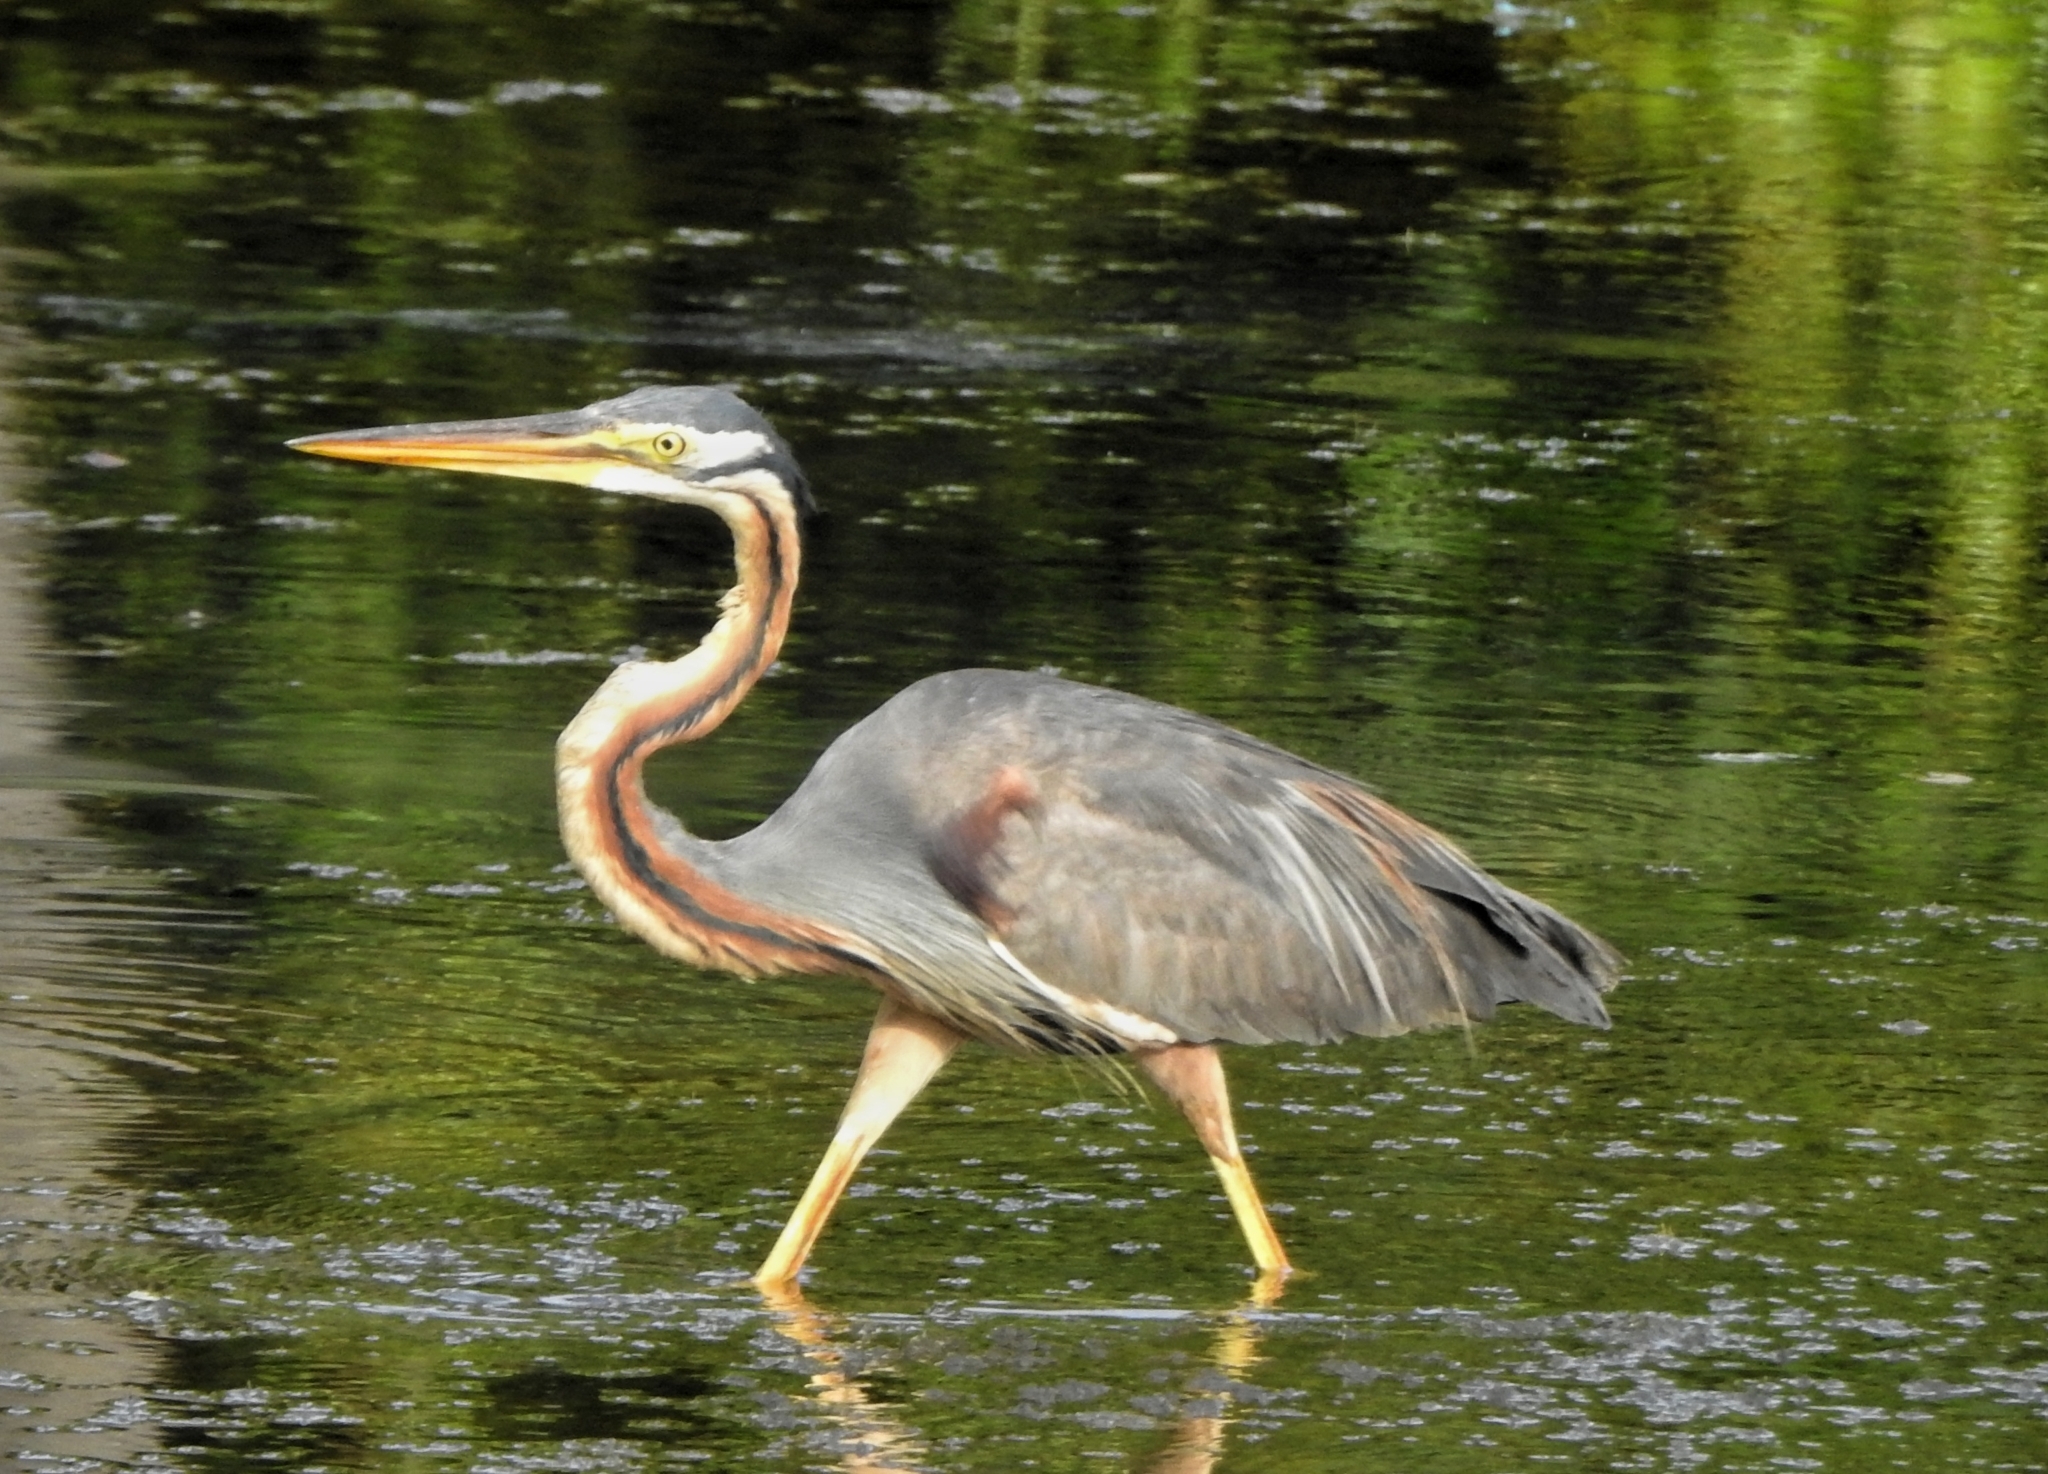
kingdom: Animalia
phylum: Chordata
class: Aves
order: Pelecaniformes
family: Ardeidae
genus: Ardea
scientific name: Ardea purpurea
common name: Purple heron
